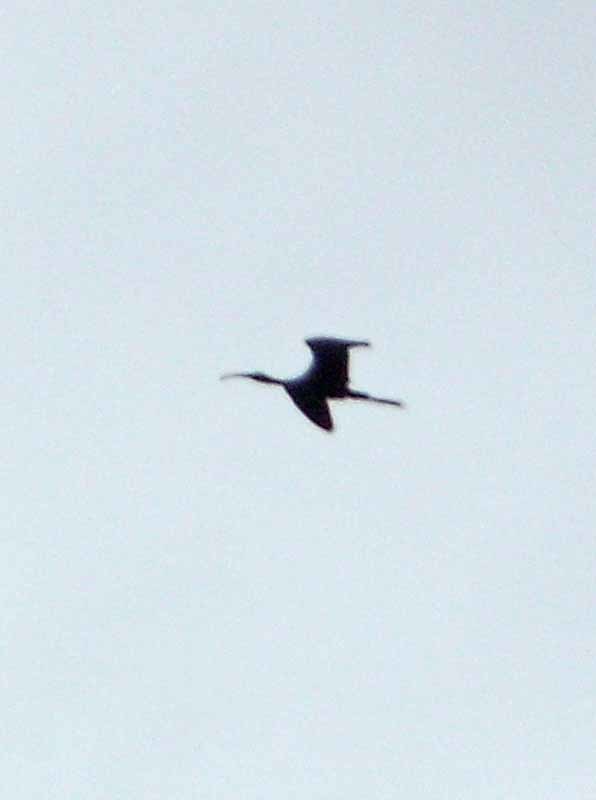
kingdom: Animalia
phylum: Chordata
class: Aves
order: Pelecaniformes
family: Threskiornithidae
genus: Plegadis
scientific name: Plegadis chihi
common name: White-faced ibis
